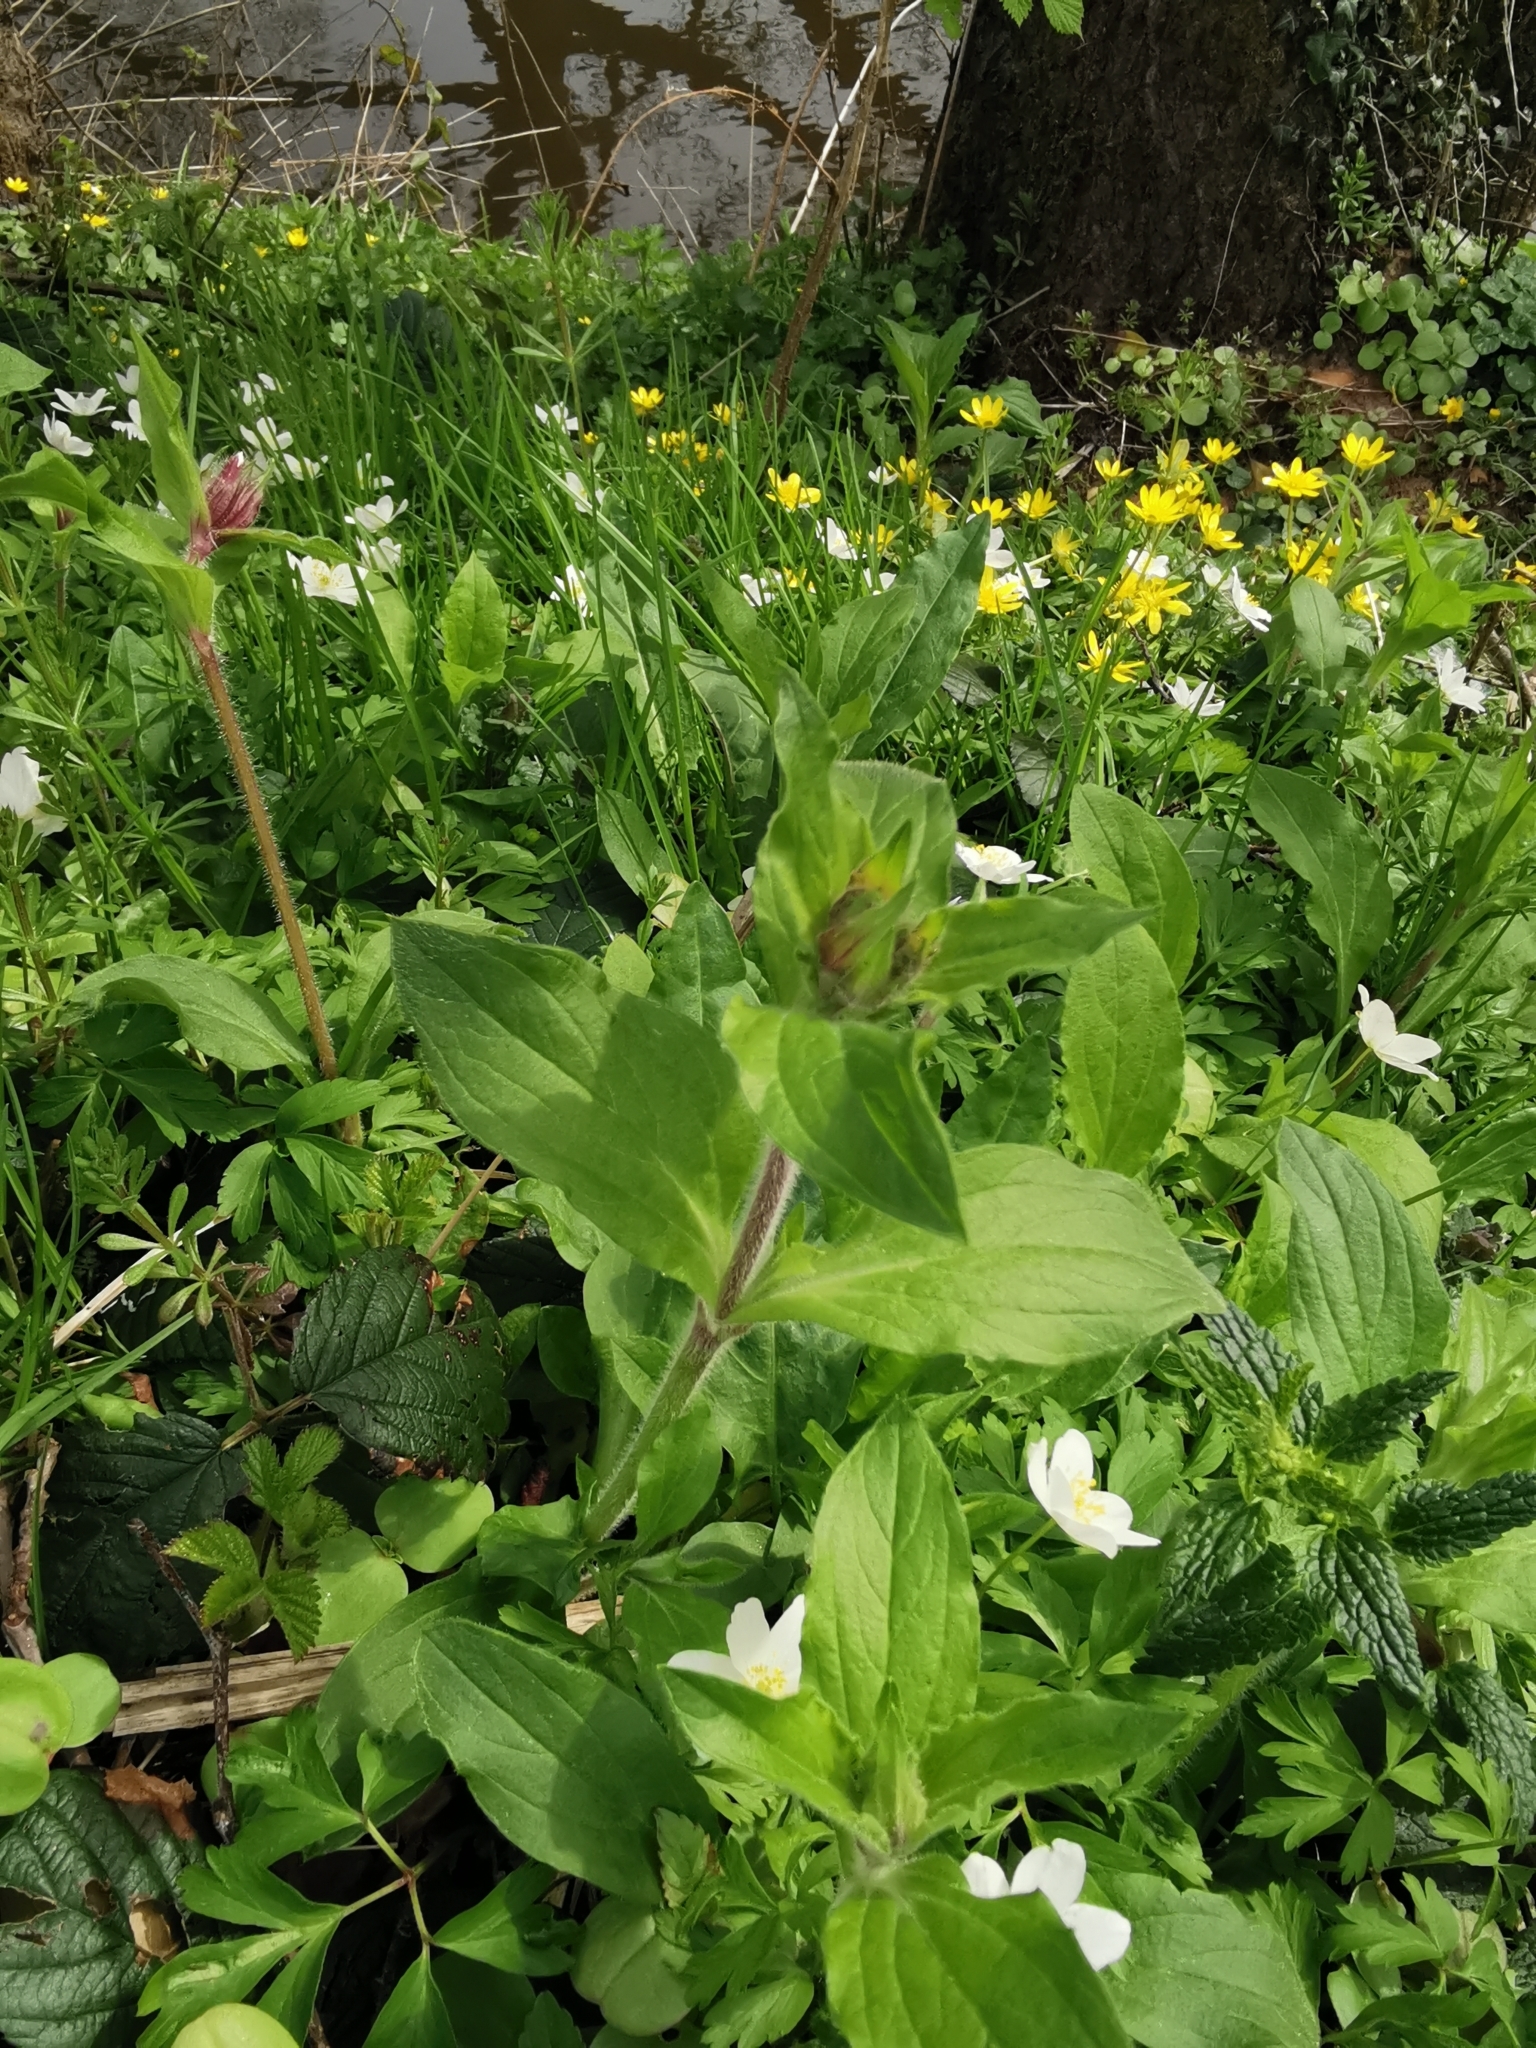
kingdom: Plantae
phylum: Tracheophyta
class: Magnoliopsida
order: Caryophyllales
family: Caryophyllaceae
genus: Silene
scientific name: Silene dioica
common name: Red campion
